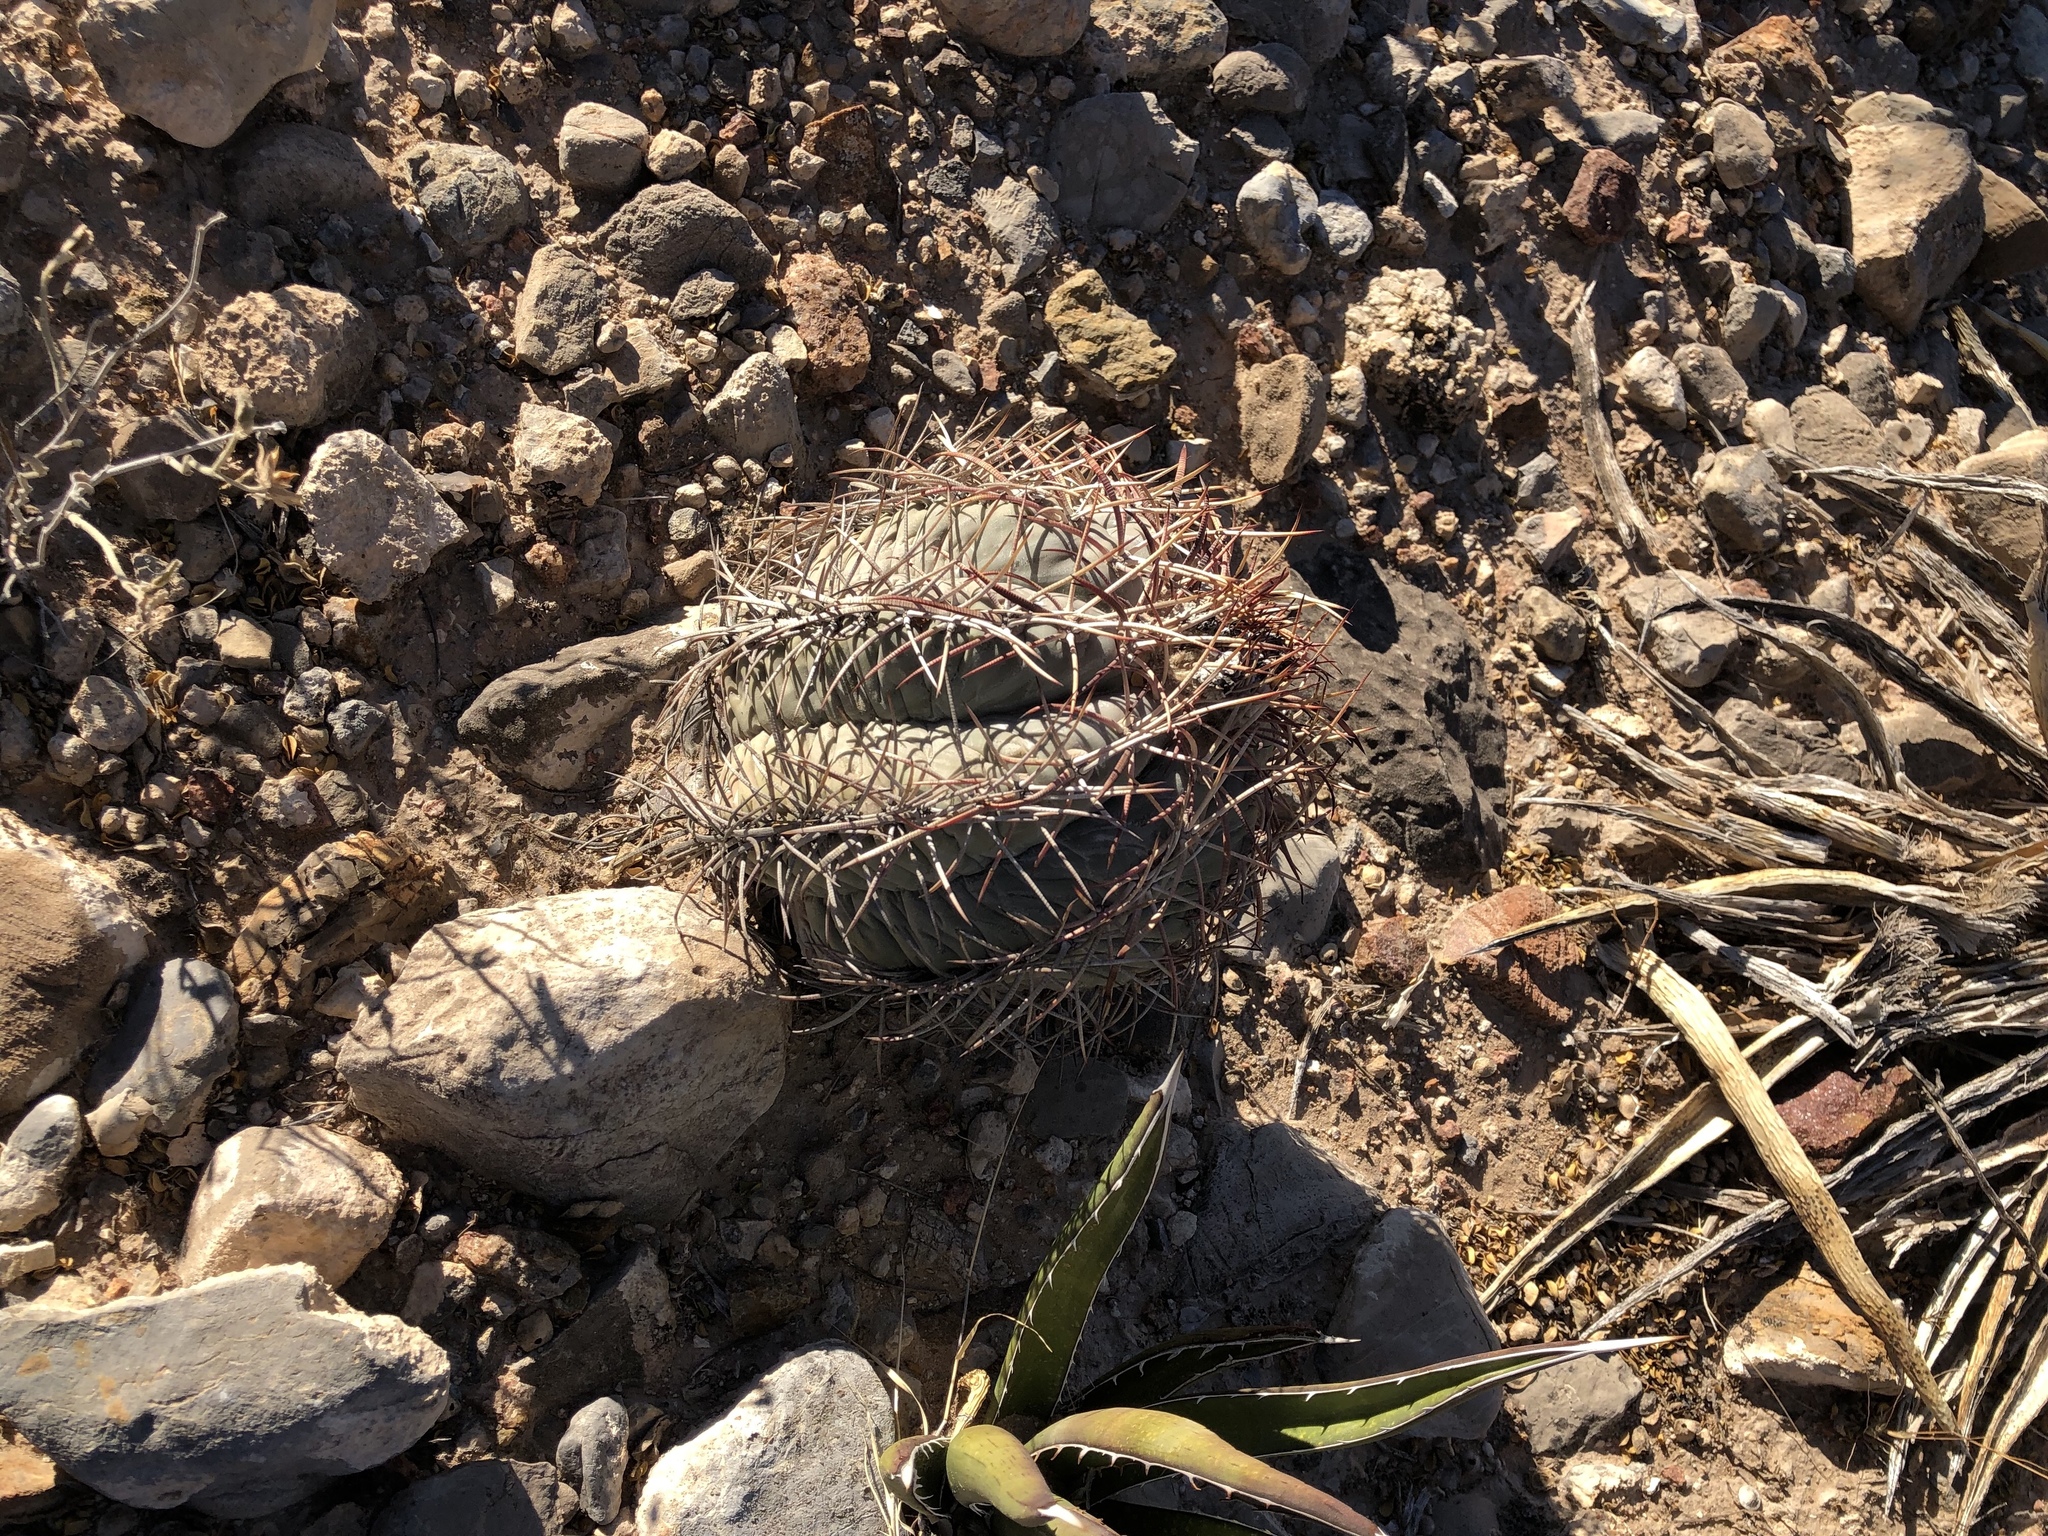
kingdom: Plantae
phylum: Tracheophyta
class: Magnoliopsida
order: Caryophyllales
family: Cactaceae
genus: Echinocactus
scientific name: Echinocactus horizonthalonius
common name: Devilshead
